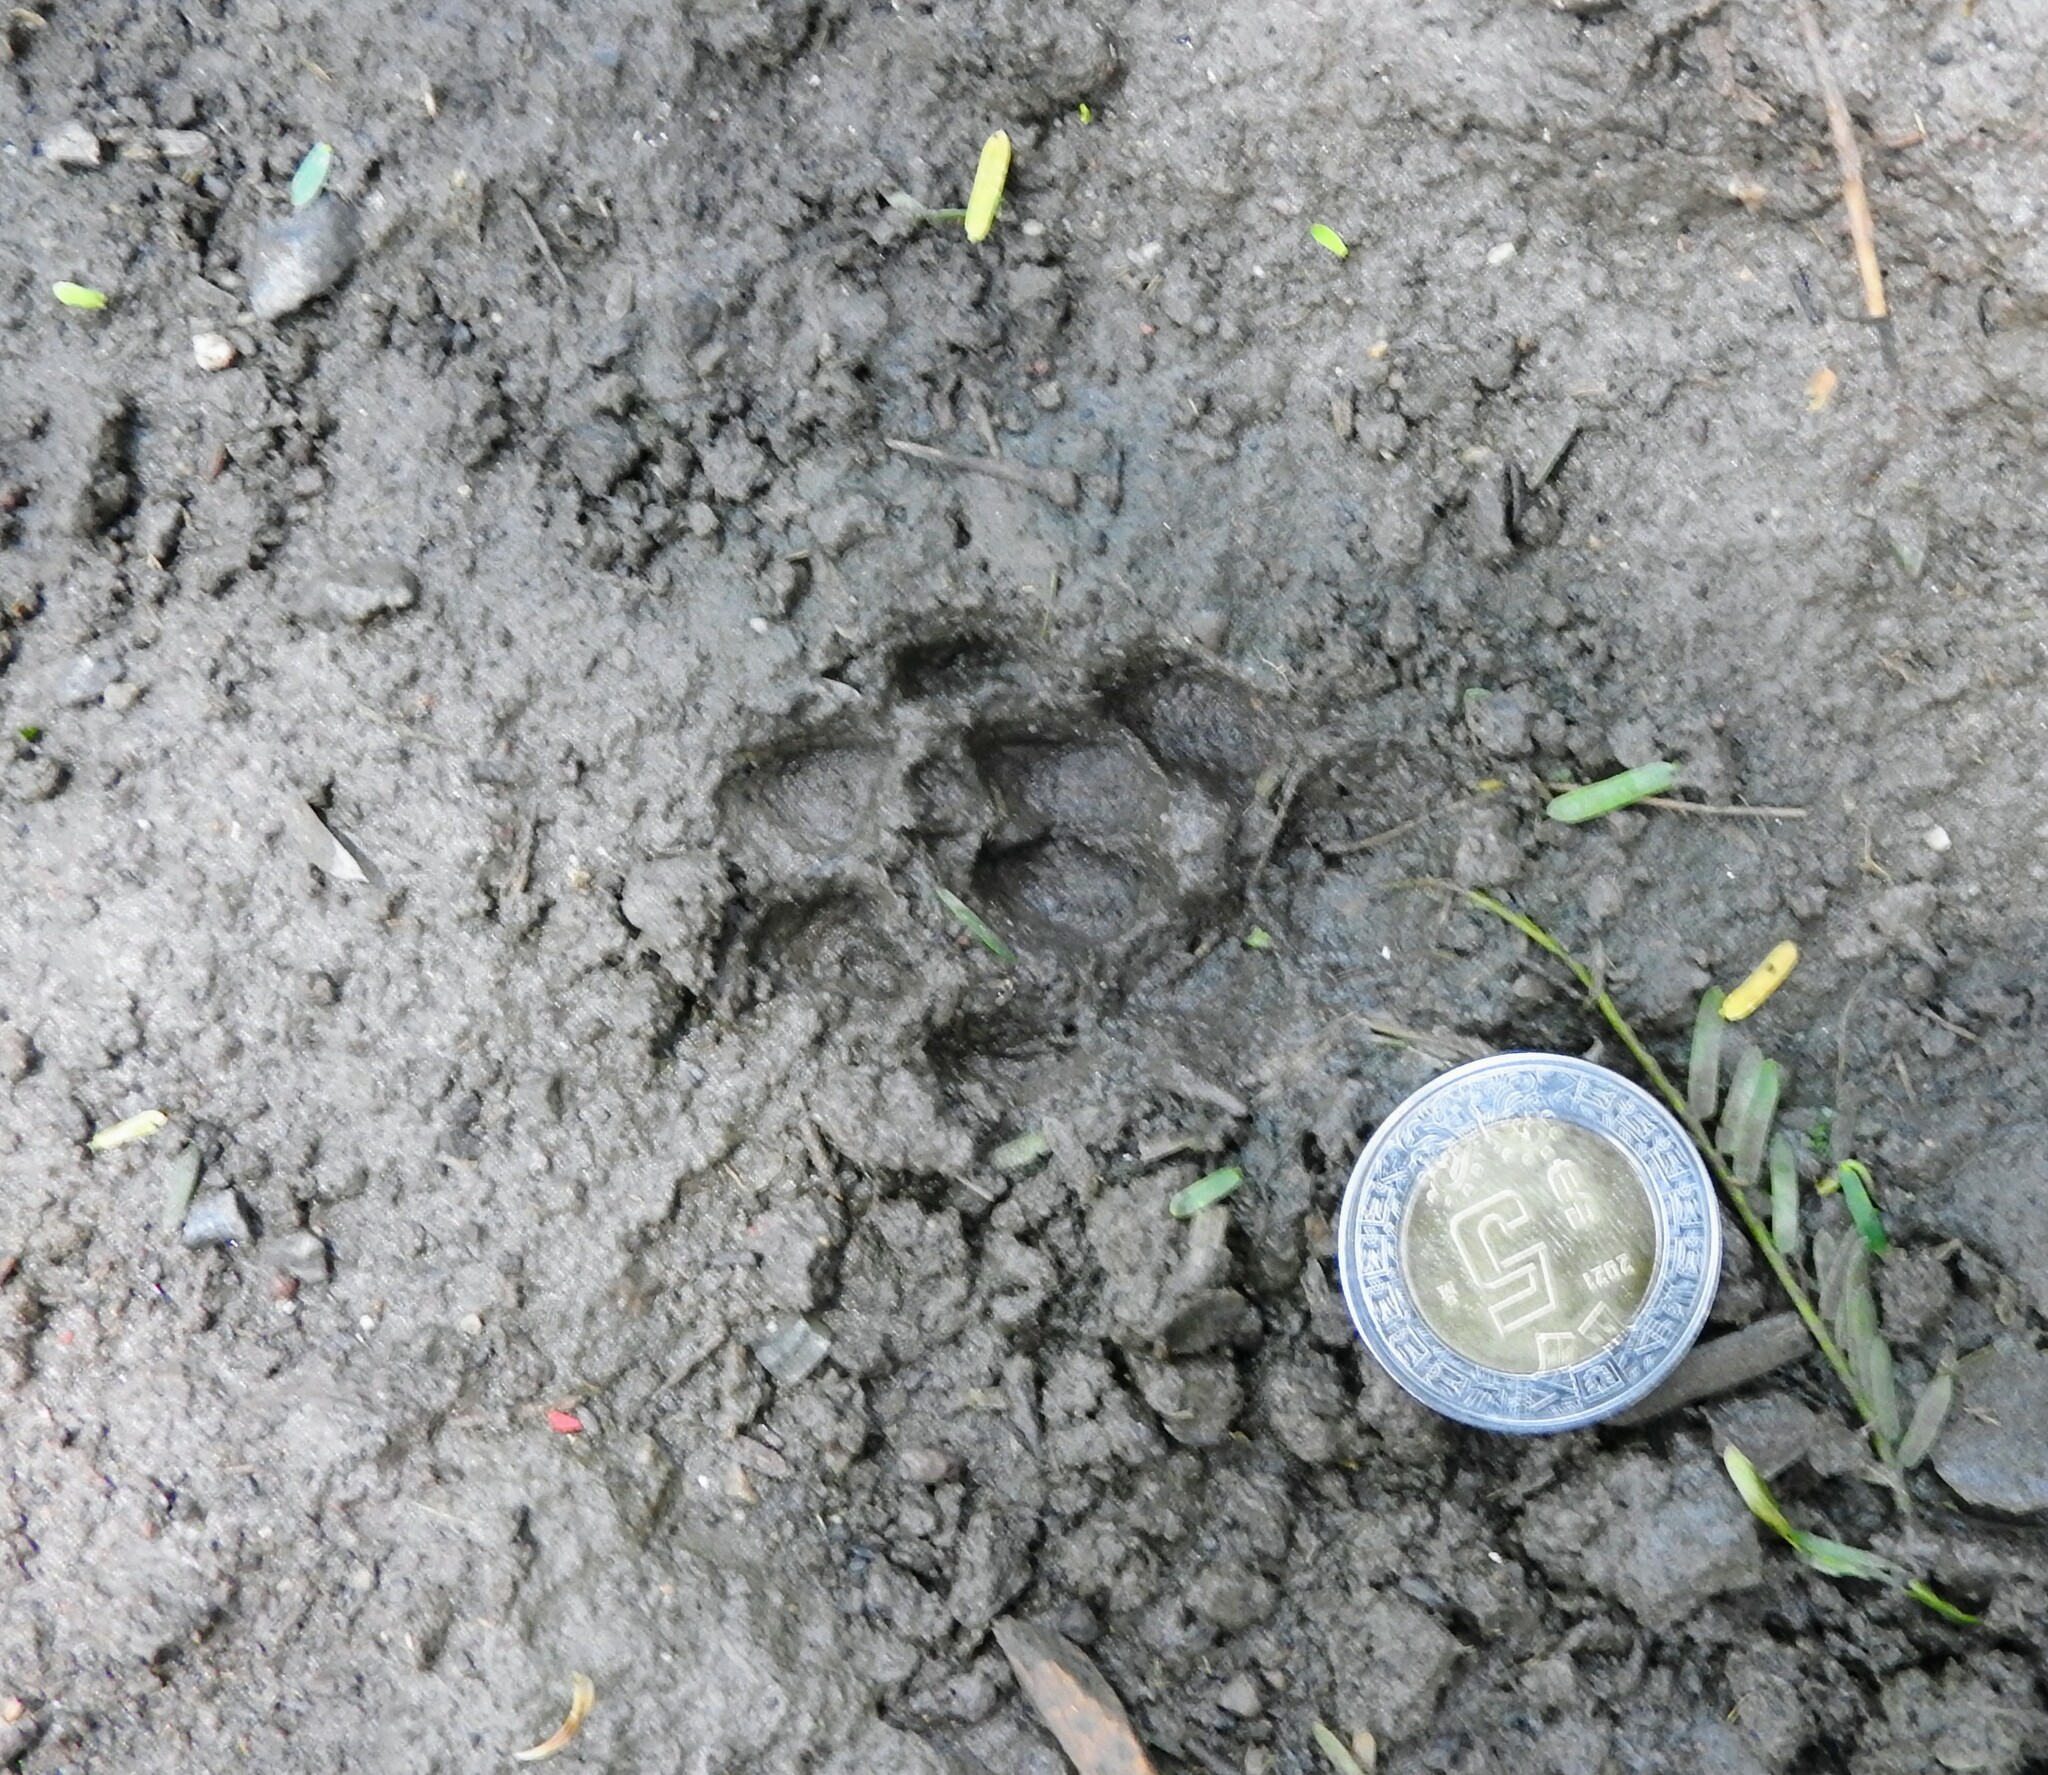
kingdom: Animalia
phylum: Chordata
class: Mammalia
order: Carnivora
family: Canidae
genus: Urocyon
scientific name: Urocyon cinereoargenteus
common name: Gray fox
